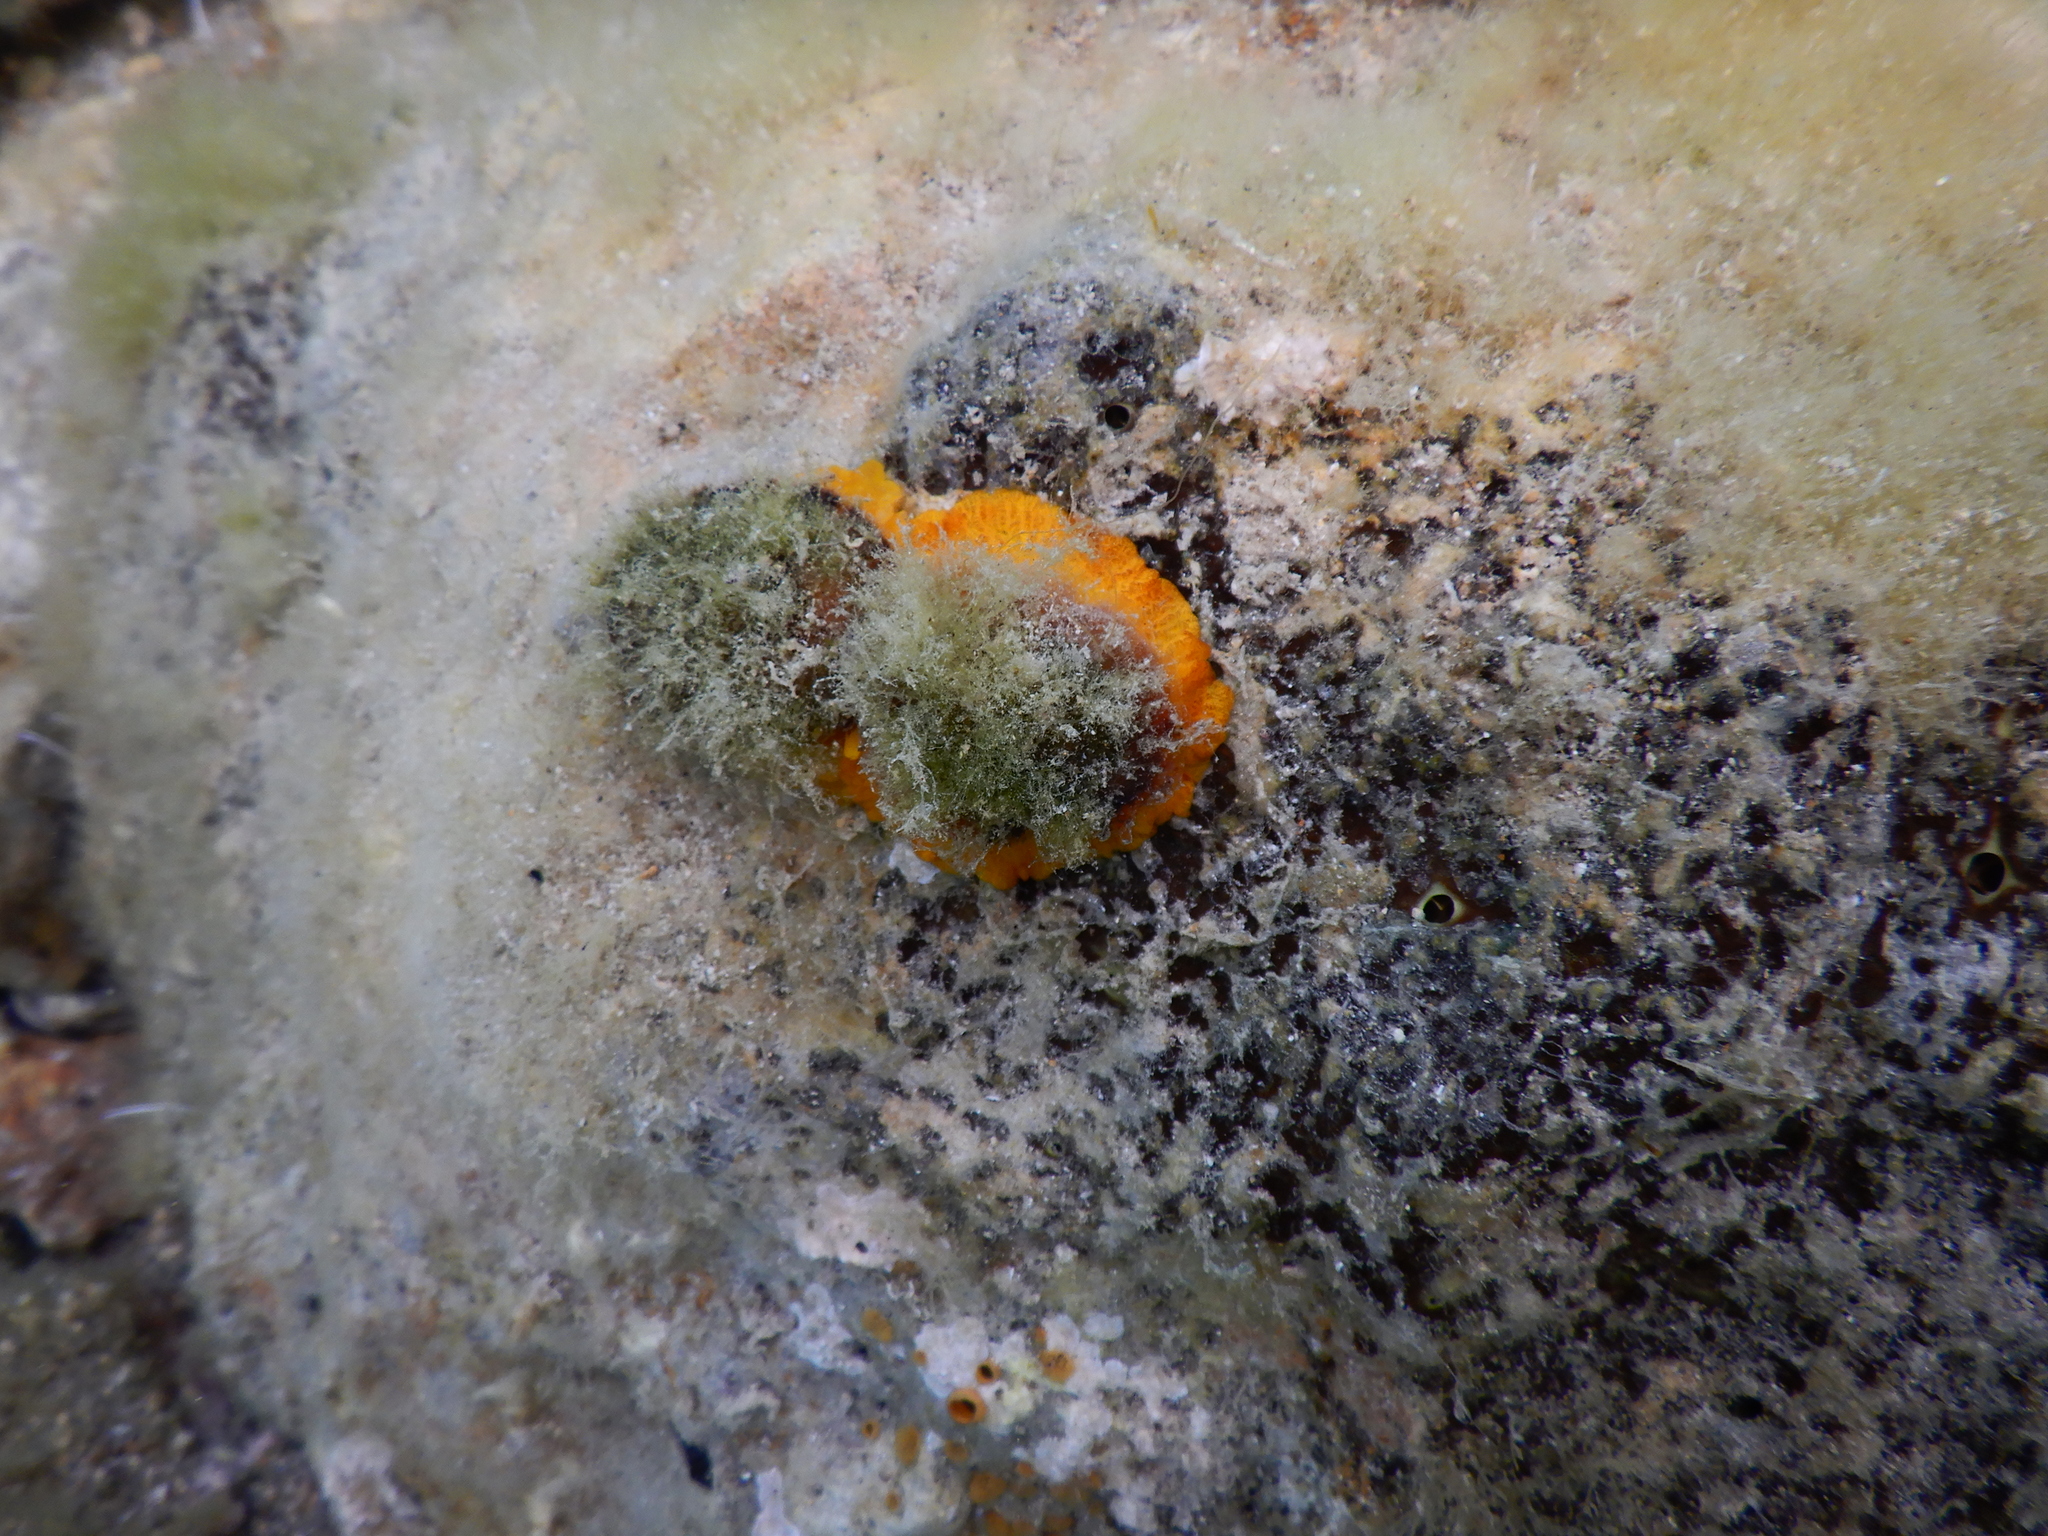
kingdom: Animalia
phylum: Mollusca
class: Gastropoda
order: Umbraculida
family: Tylodinidae
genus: Tylodina
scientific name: Tylodina perversa
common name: Yellow tylodina
